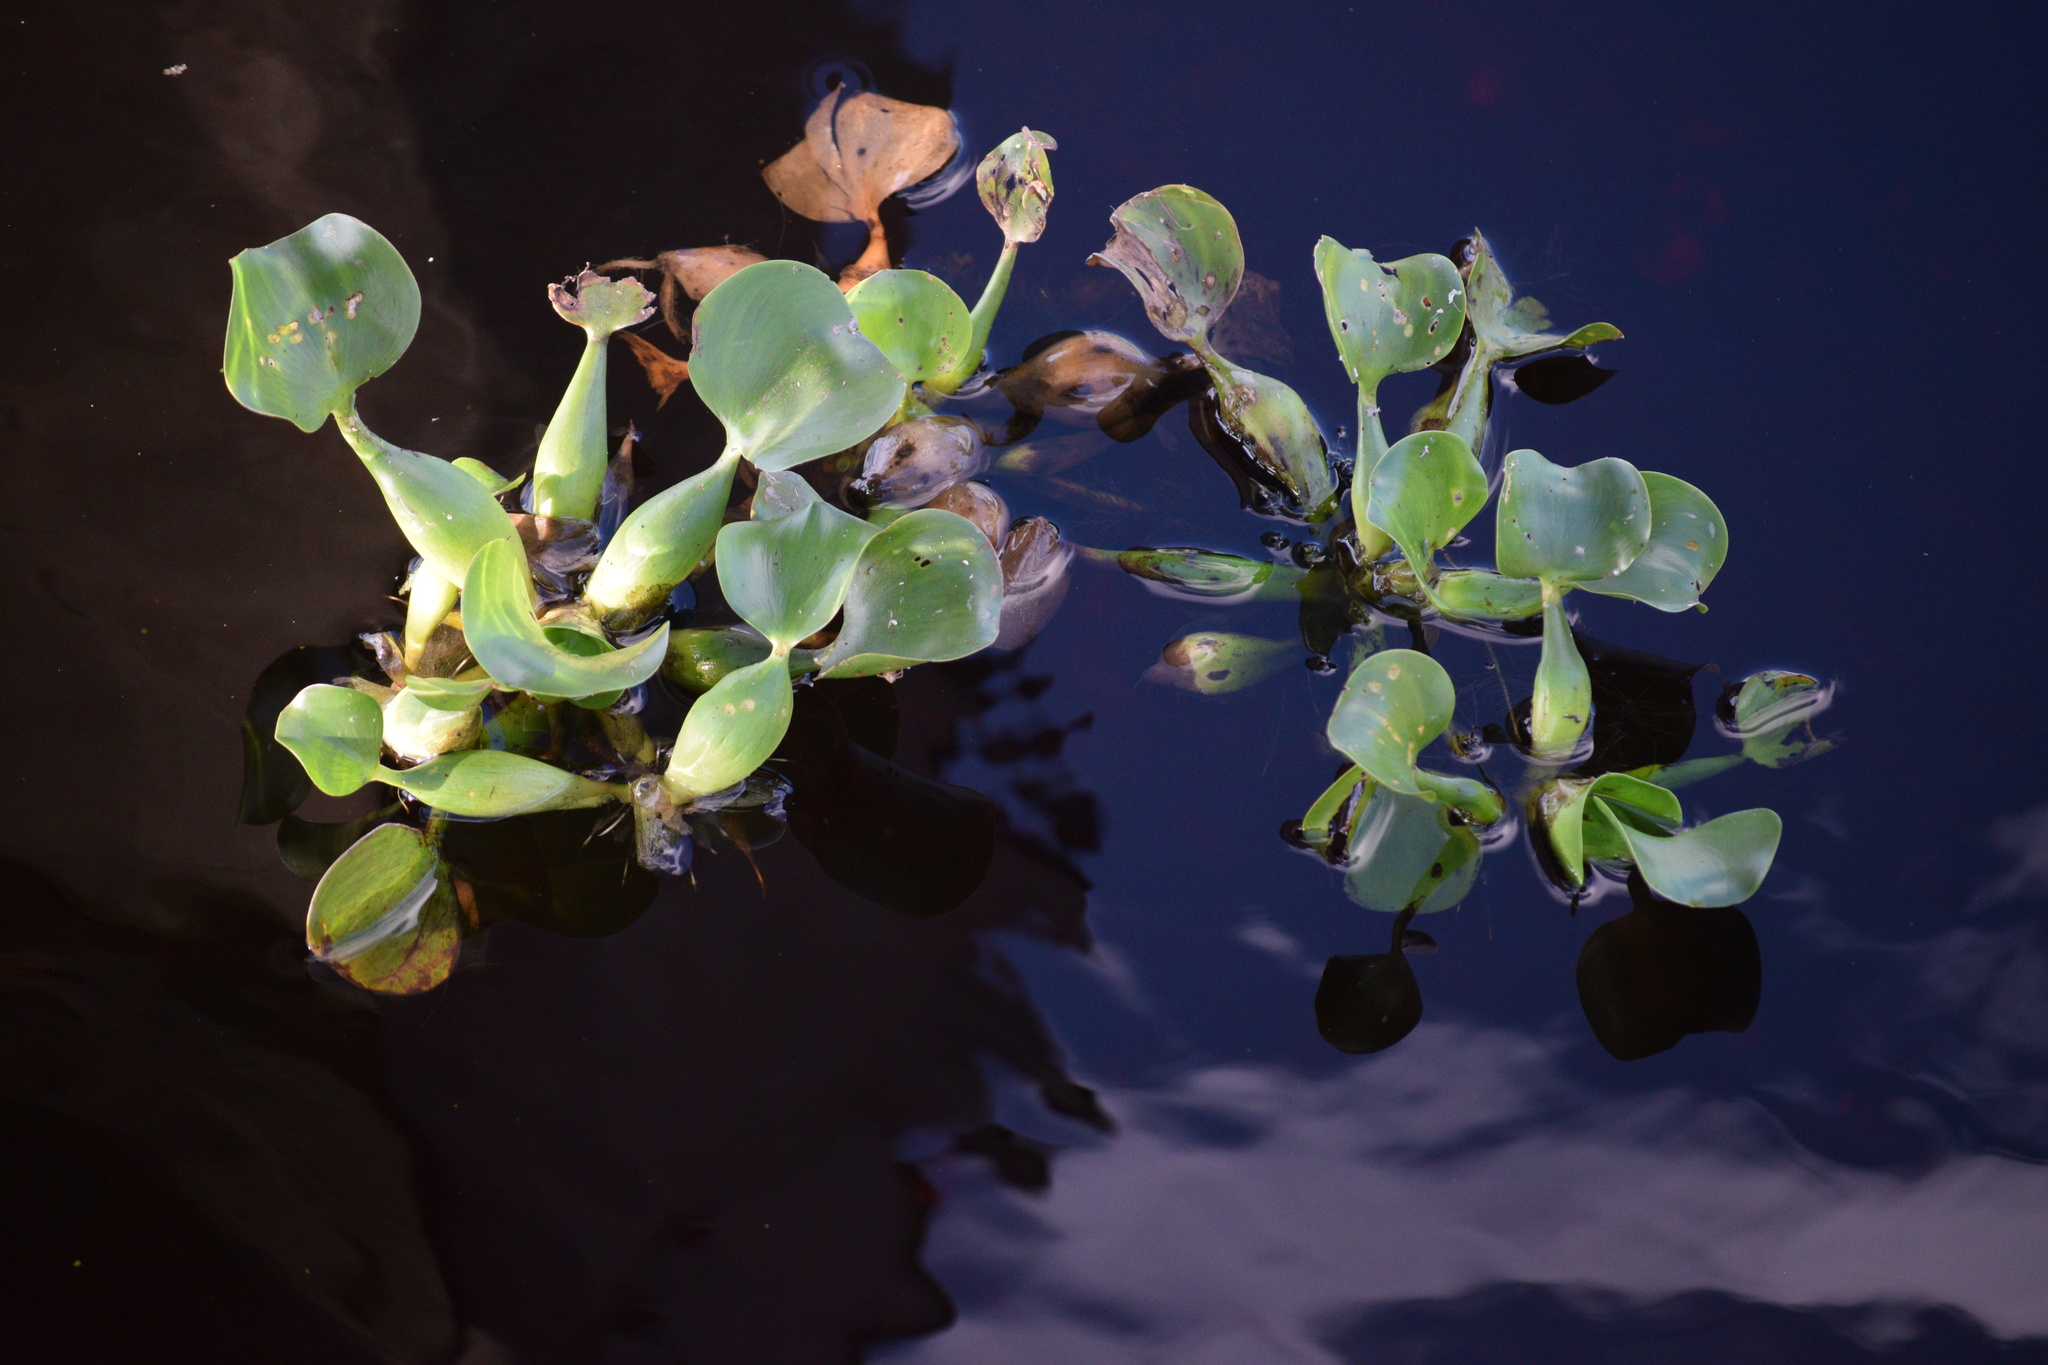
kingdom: Plantae
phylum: Tracheophyta
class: Liliopsida
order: Commelinales
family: Pontederiaceae
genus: Pontederia
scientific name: Pontederia crassipes
